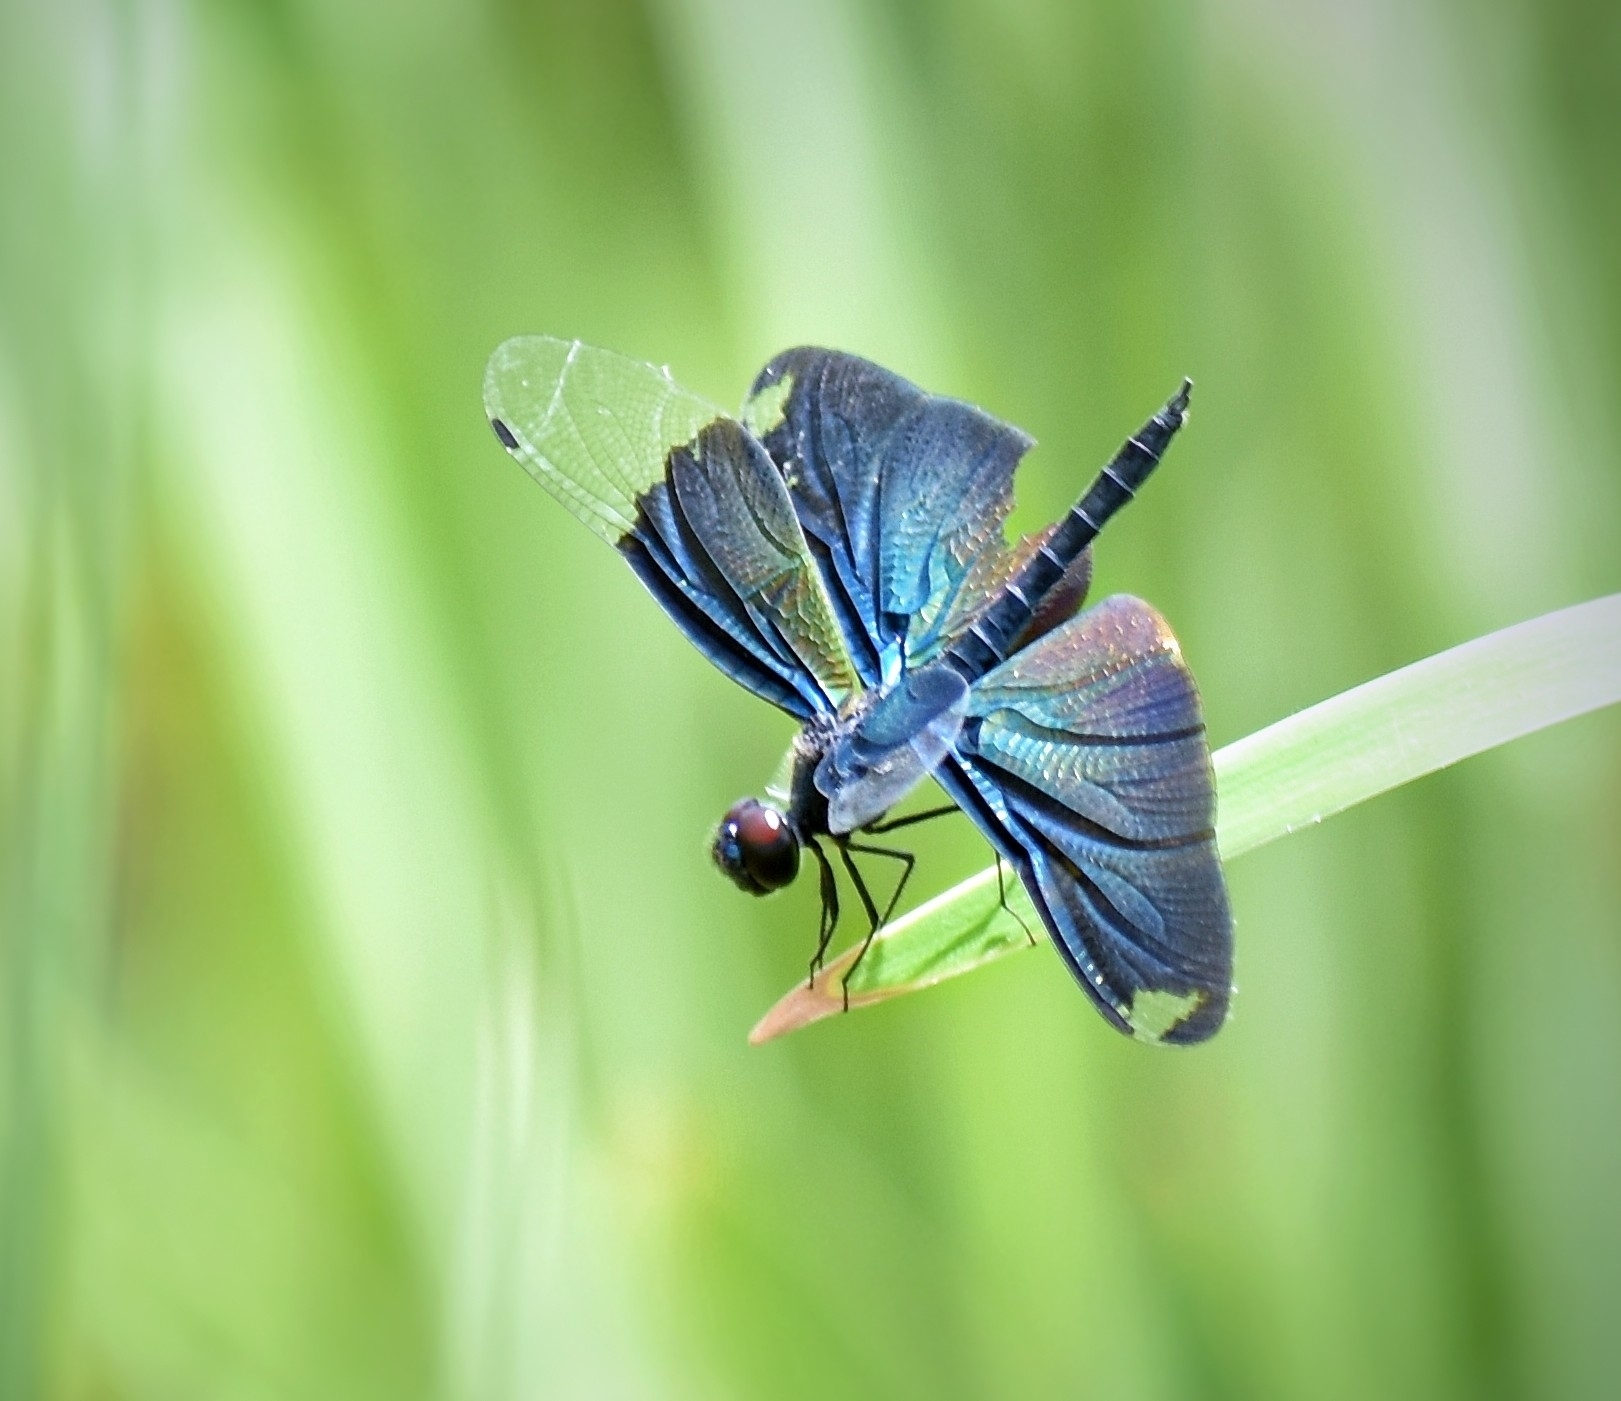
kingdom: Animalia
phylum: Arthropoda
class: Insecta
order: Odonata
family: Libellulidae
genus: Rhyothemis
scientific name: Rhyothemis fuliginosa
